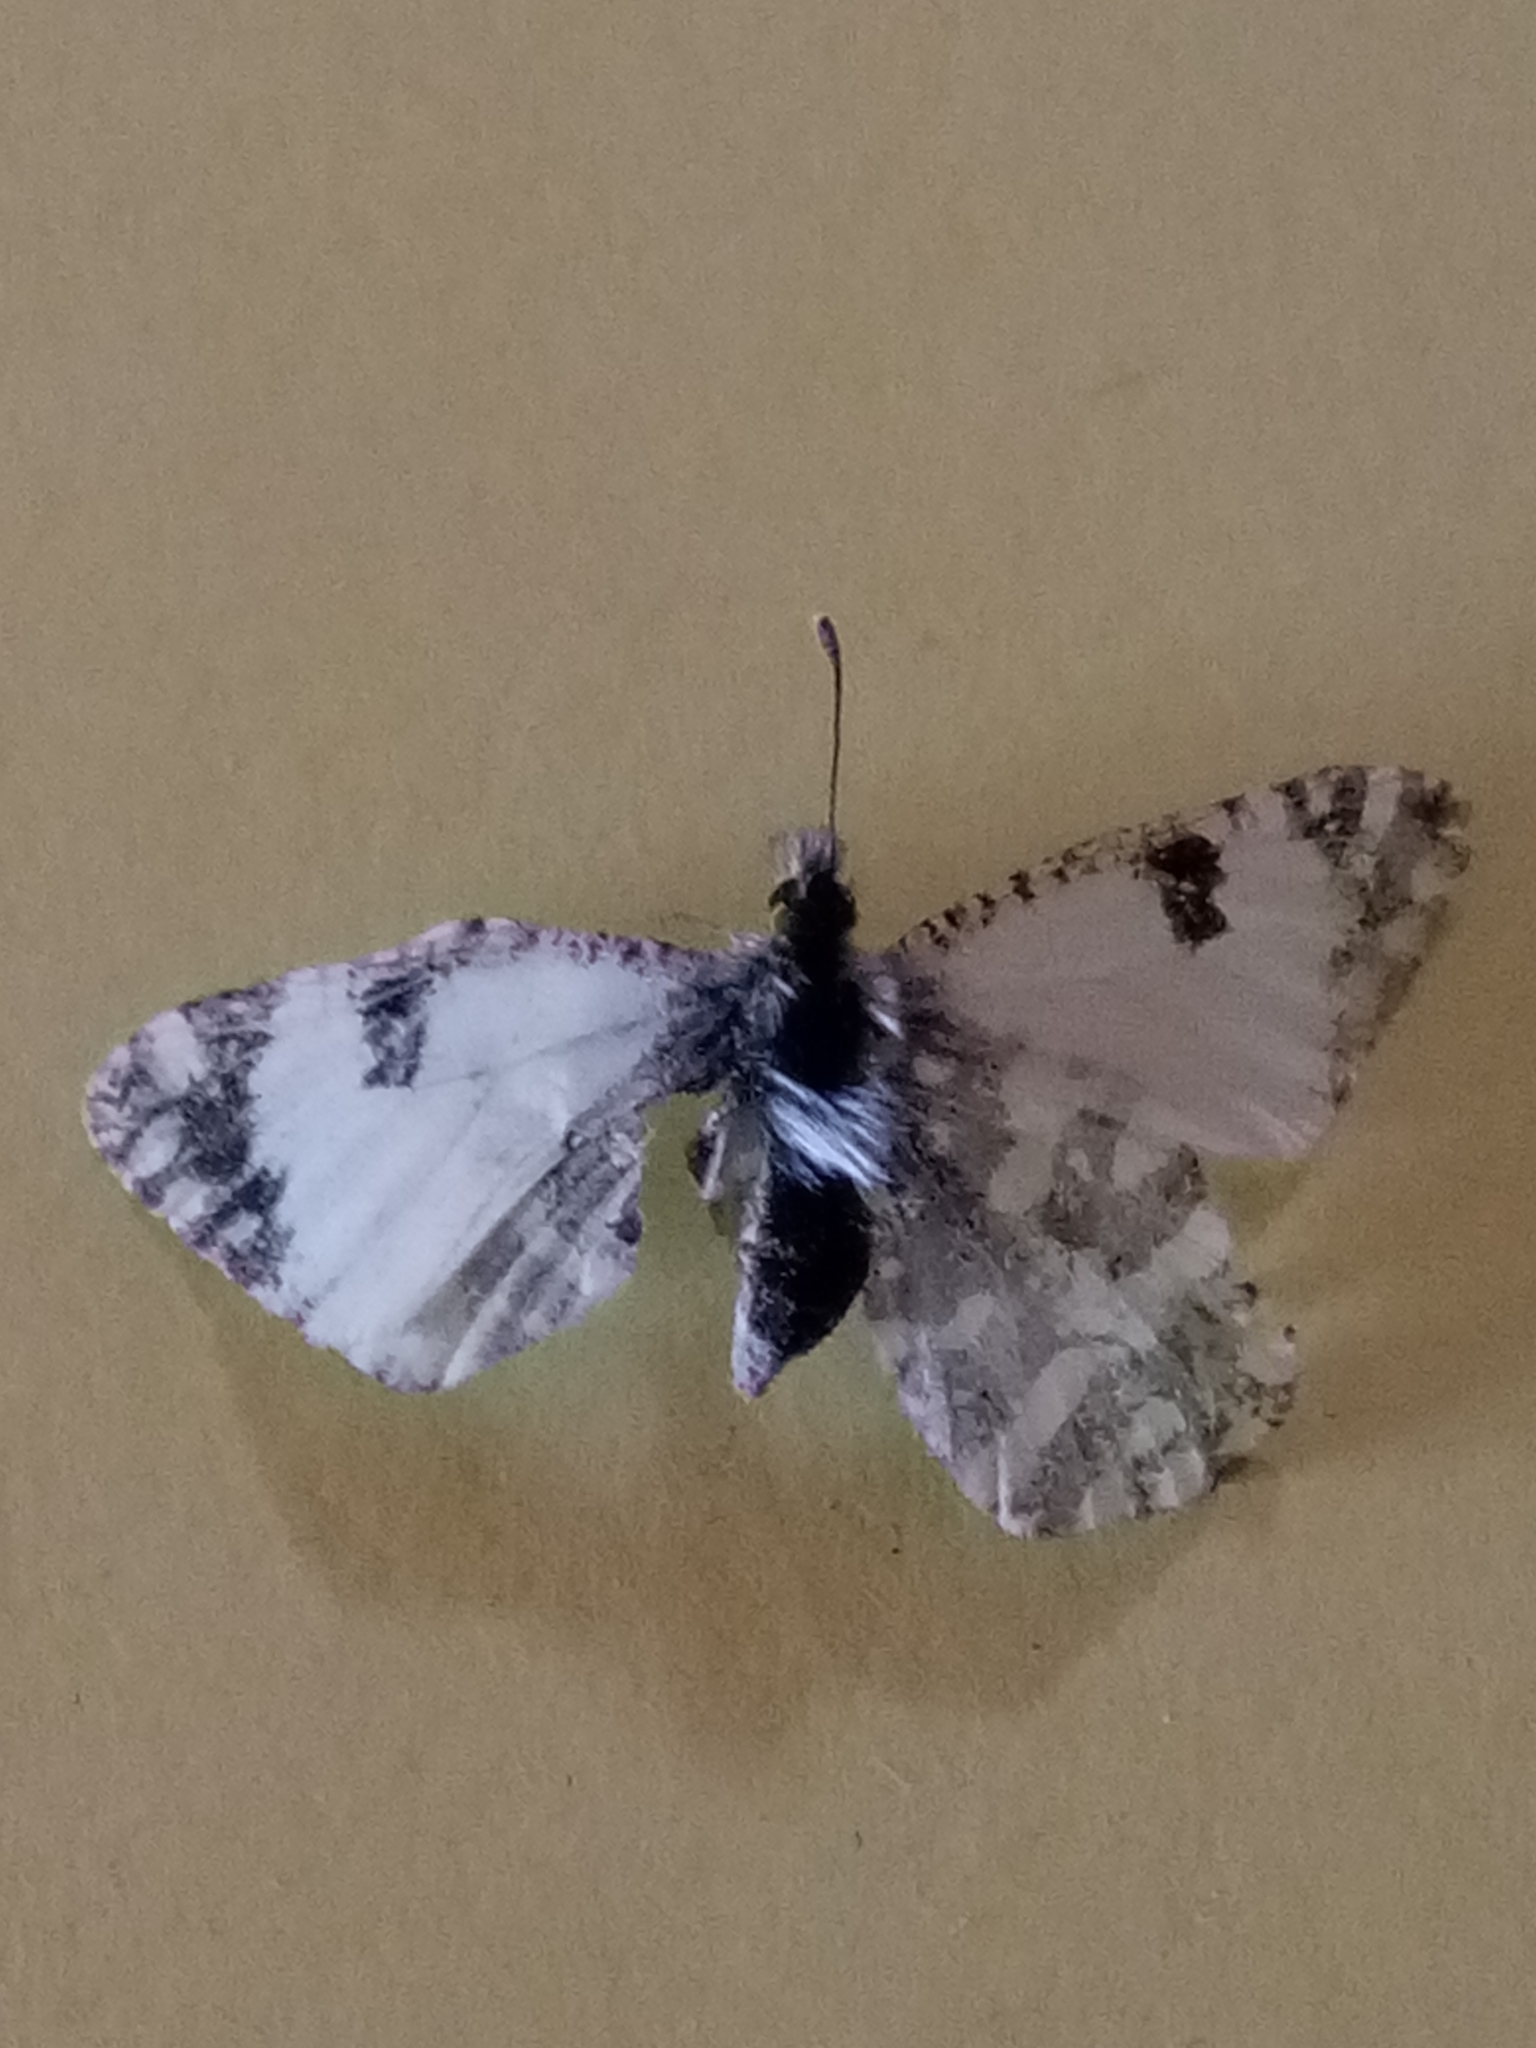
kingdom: Animalia
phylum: Arthropoda
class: Insecta
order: Lepidoptera
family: Pieridae
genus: Euchloe
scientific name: Euchloe crameri
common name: Western dappled white
